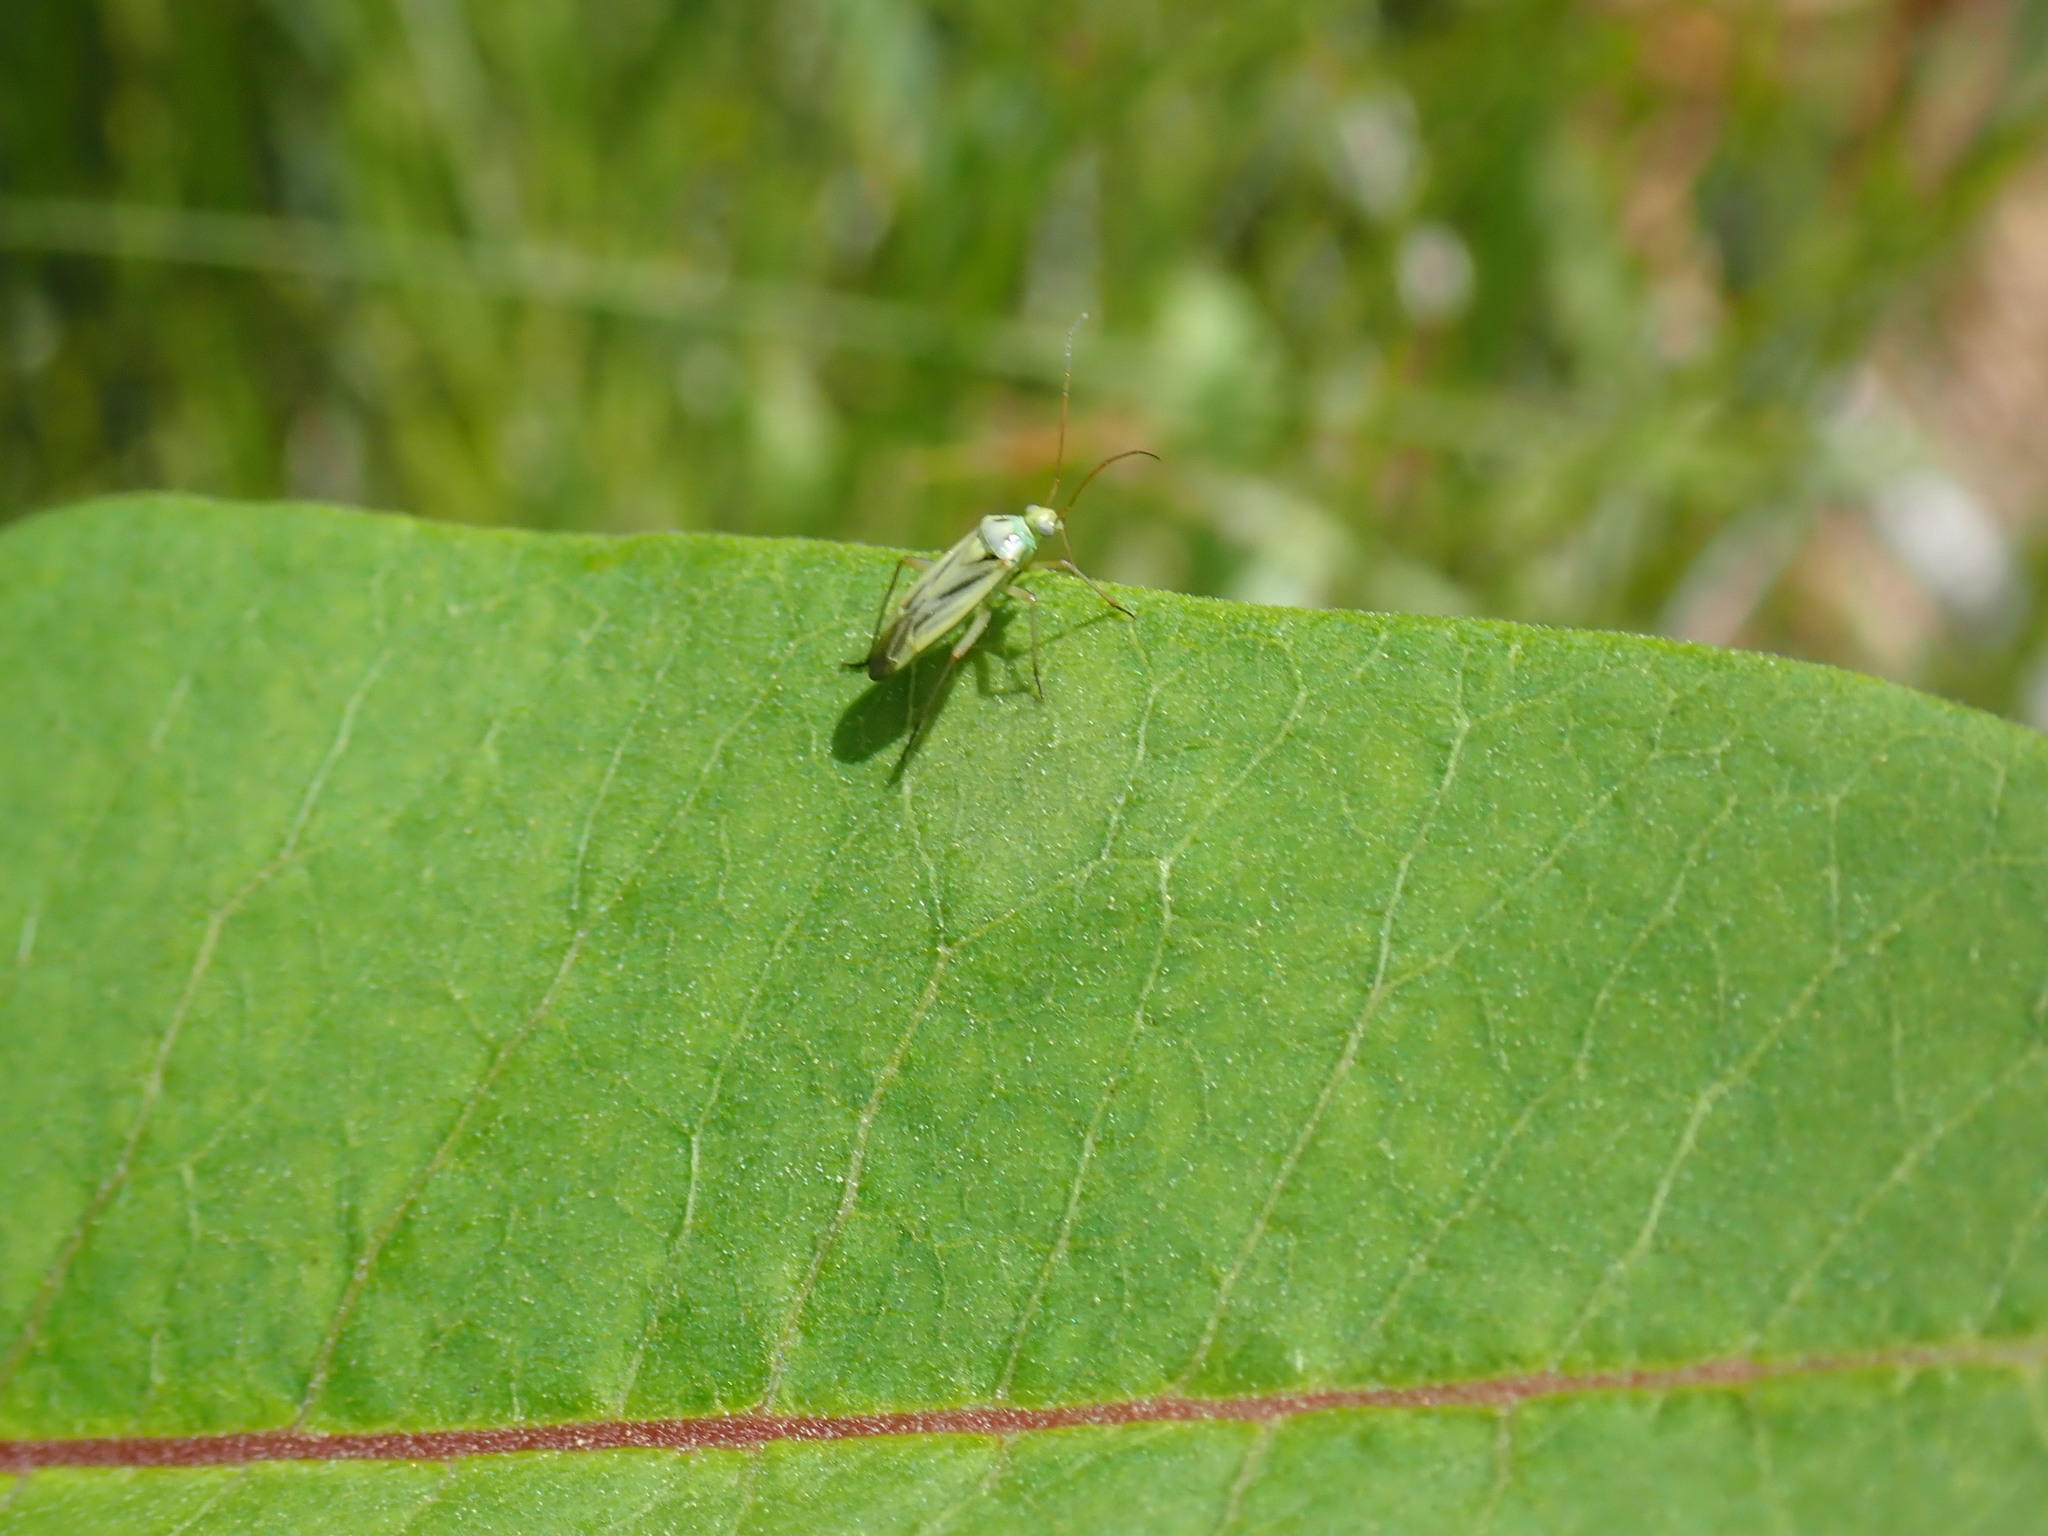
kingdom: Animalia
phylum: Arthropoda
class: Insecta
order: Hemiptera
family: Miridae
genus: Stenotus
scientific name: Stenotus binotatus
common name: Plant bug
